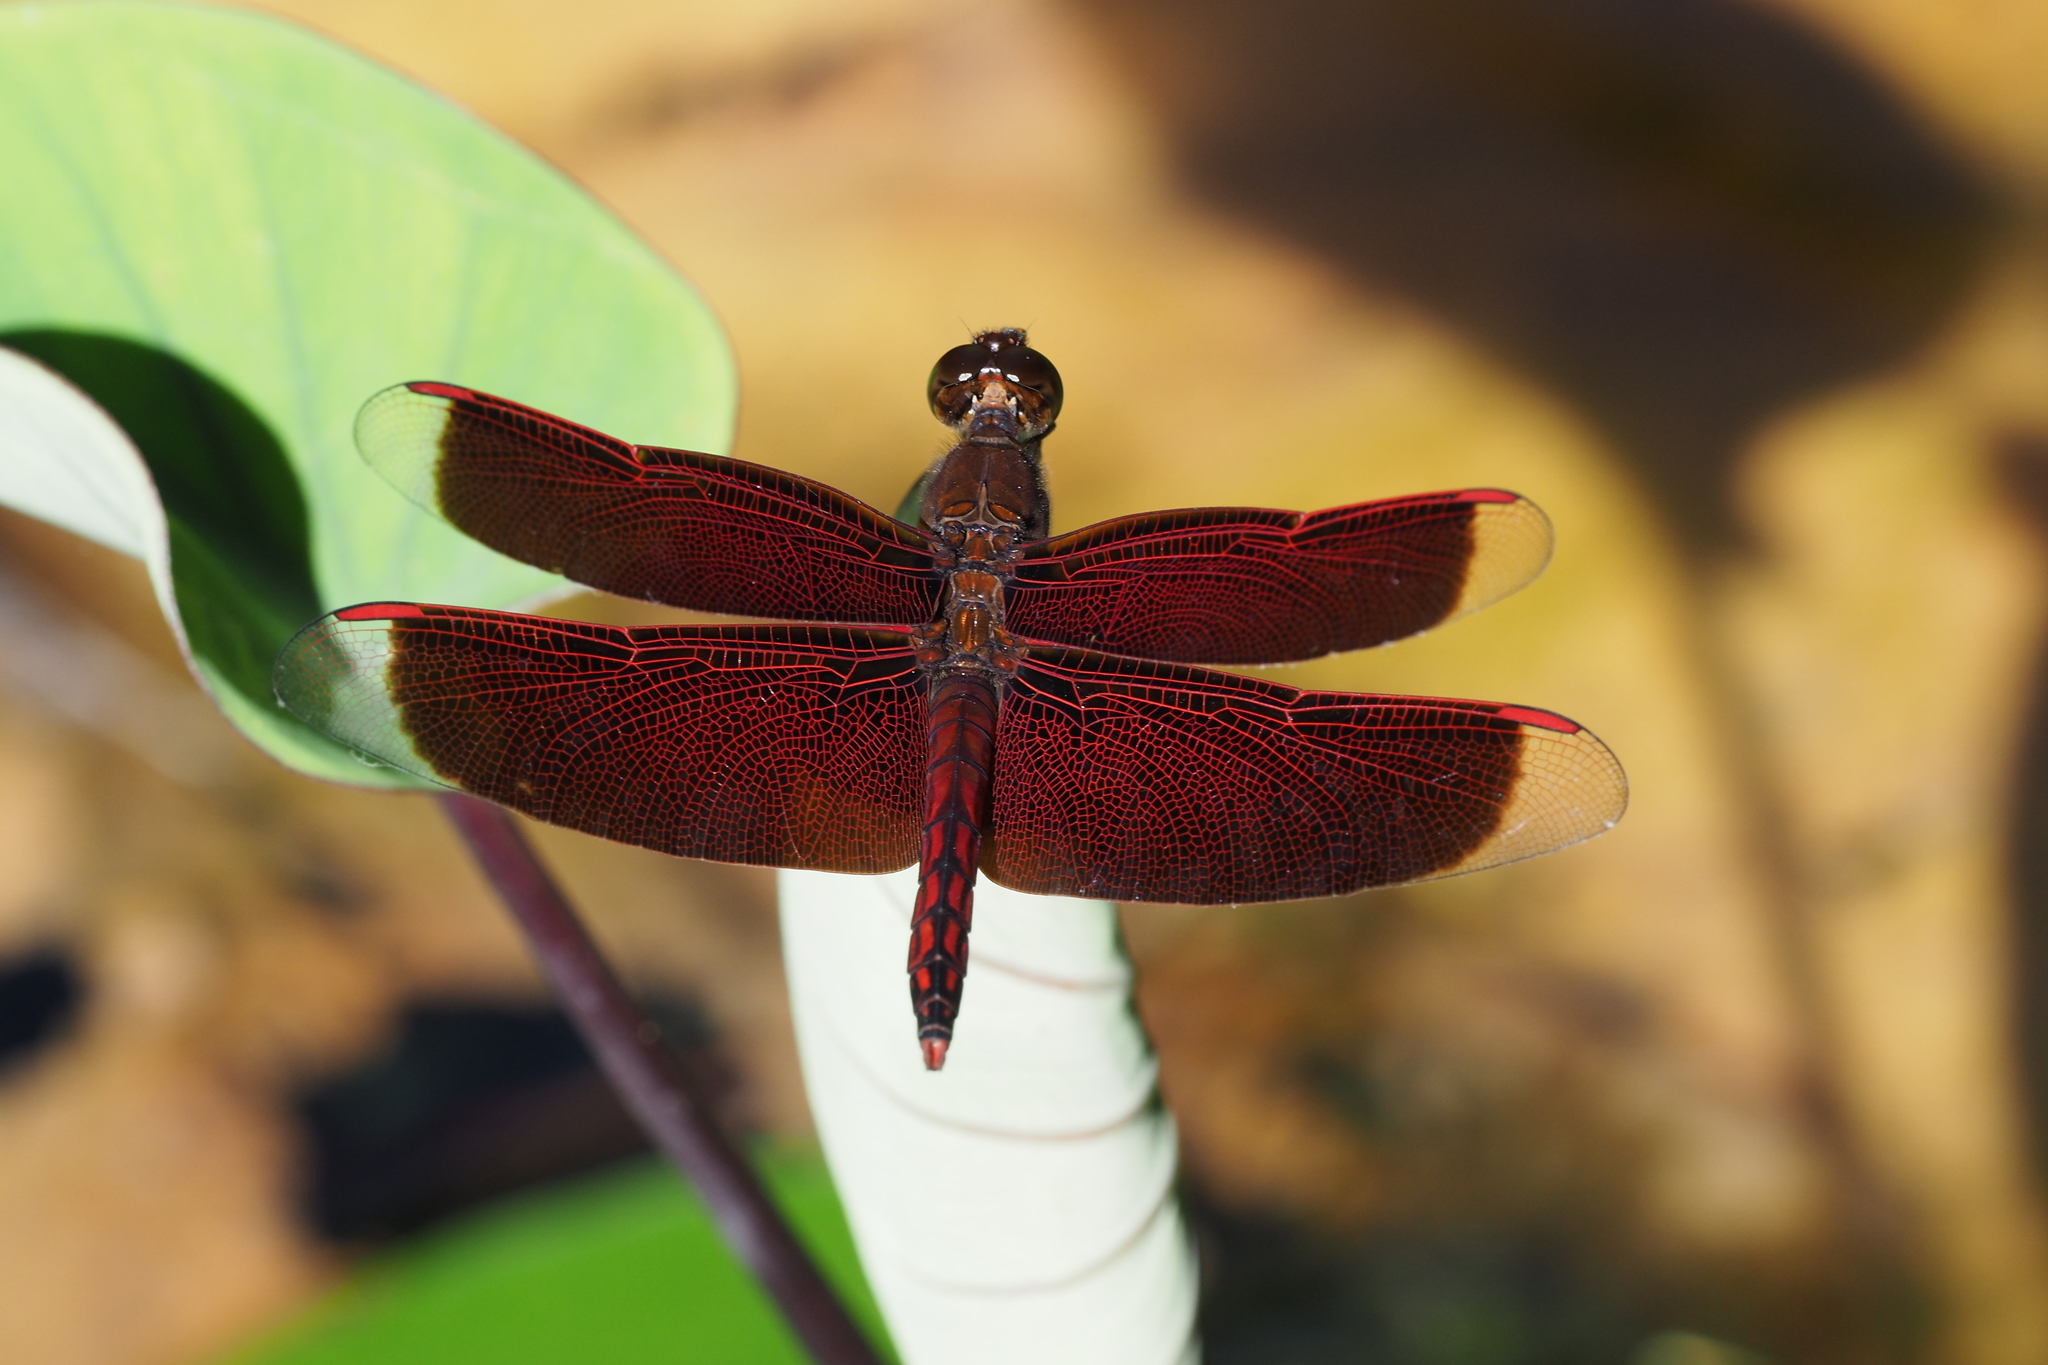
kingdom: Animalia
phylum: Arthropoda
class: Insecta
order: Odonata
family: Libellulidae
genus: Neurothemis
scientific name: Neurothemis taiwanensis
